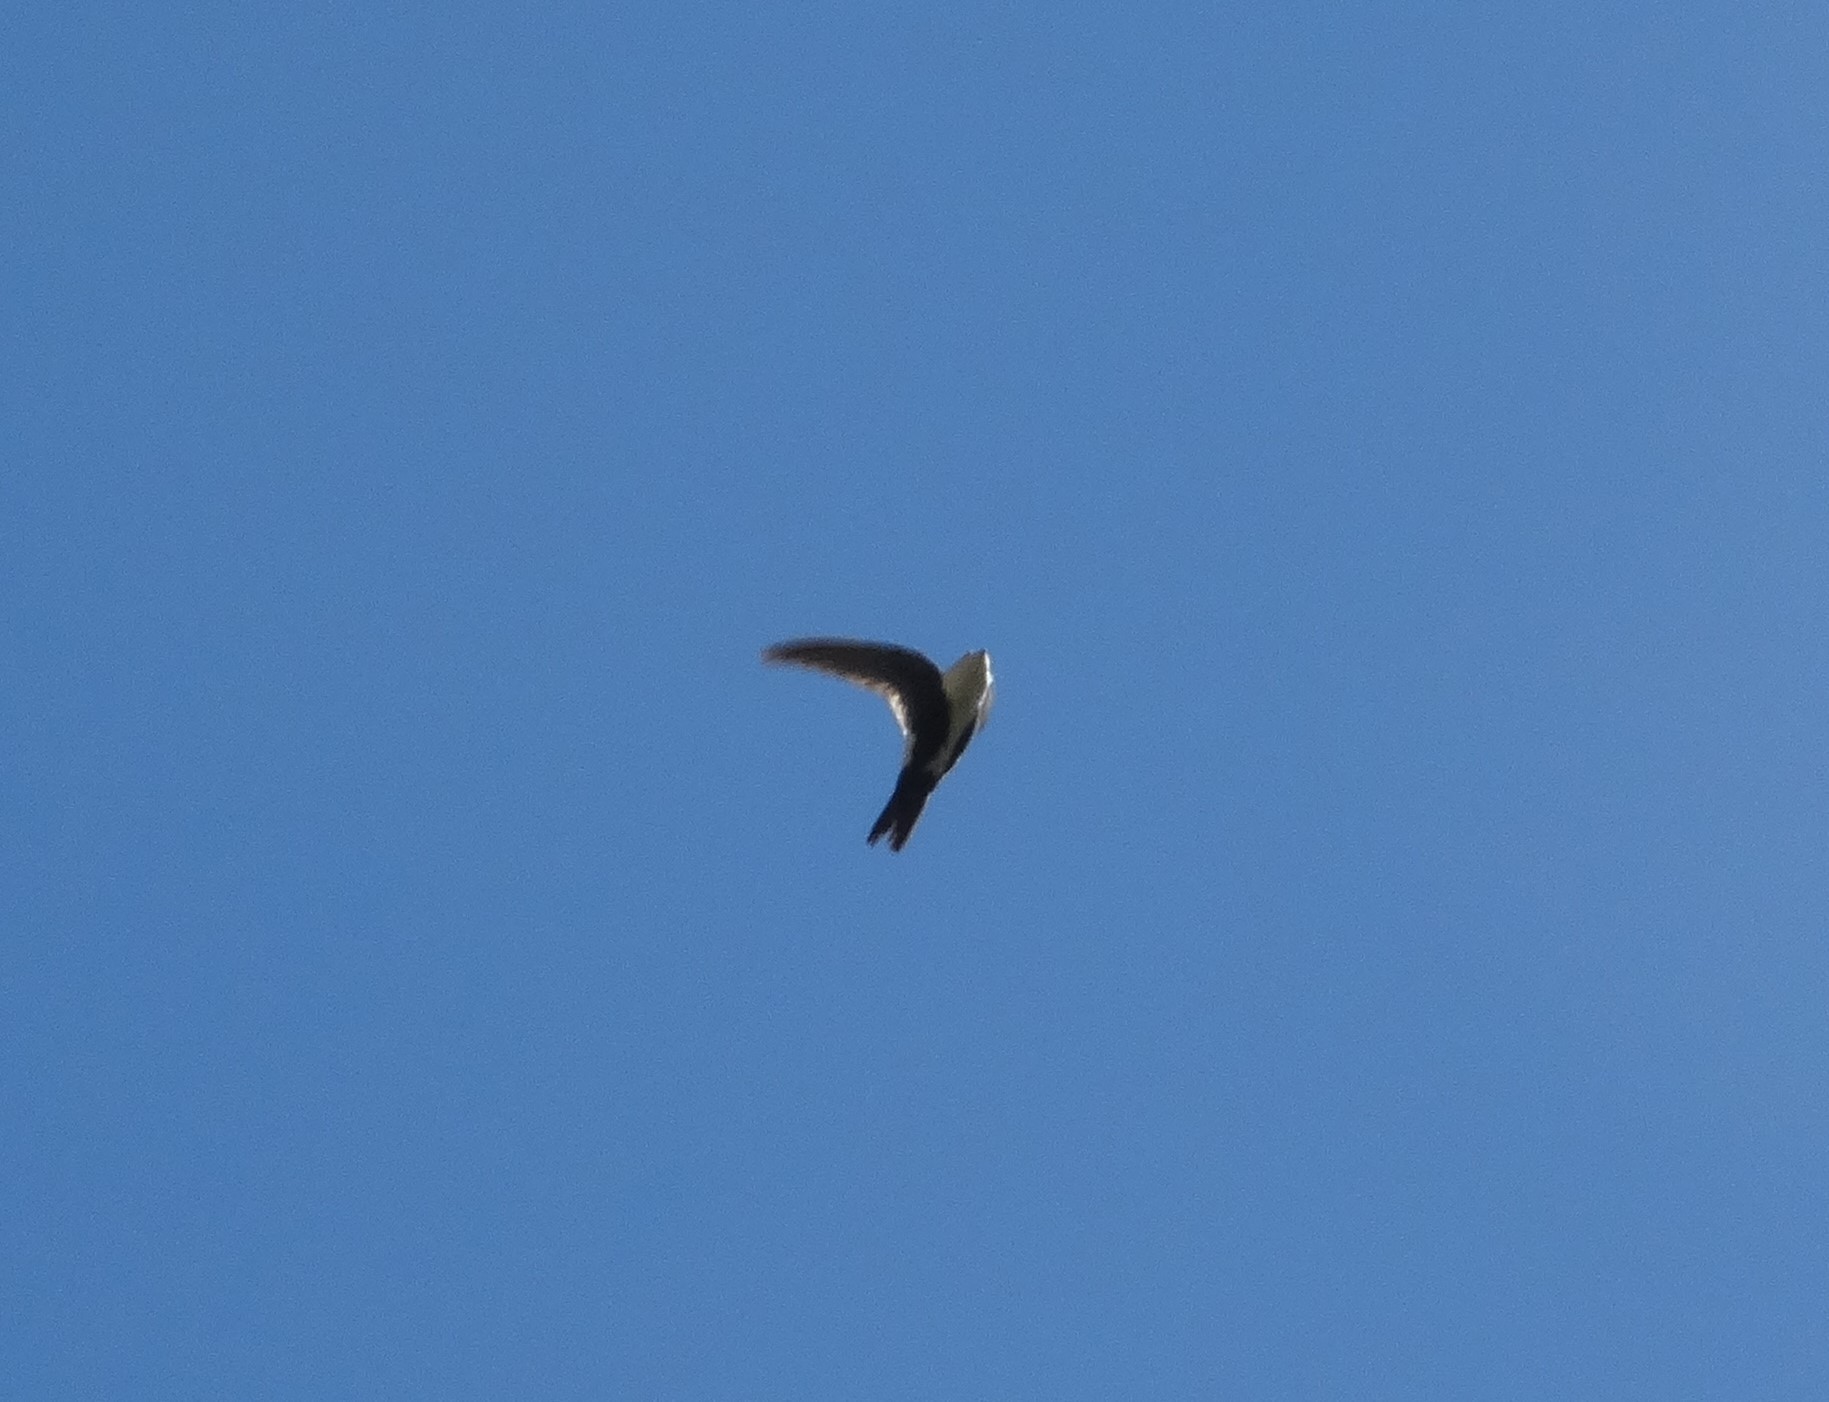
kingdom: Animalia
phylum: Chordata
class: Aves
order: Apodiformes
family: Apodidae
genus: Aeronautes
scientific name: Aeronautes saxatalis
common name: White-throated swift
